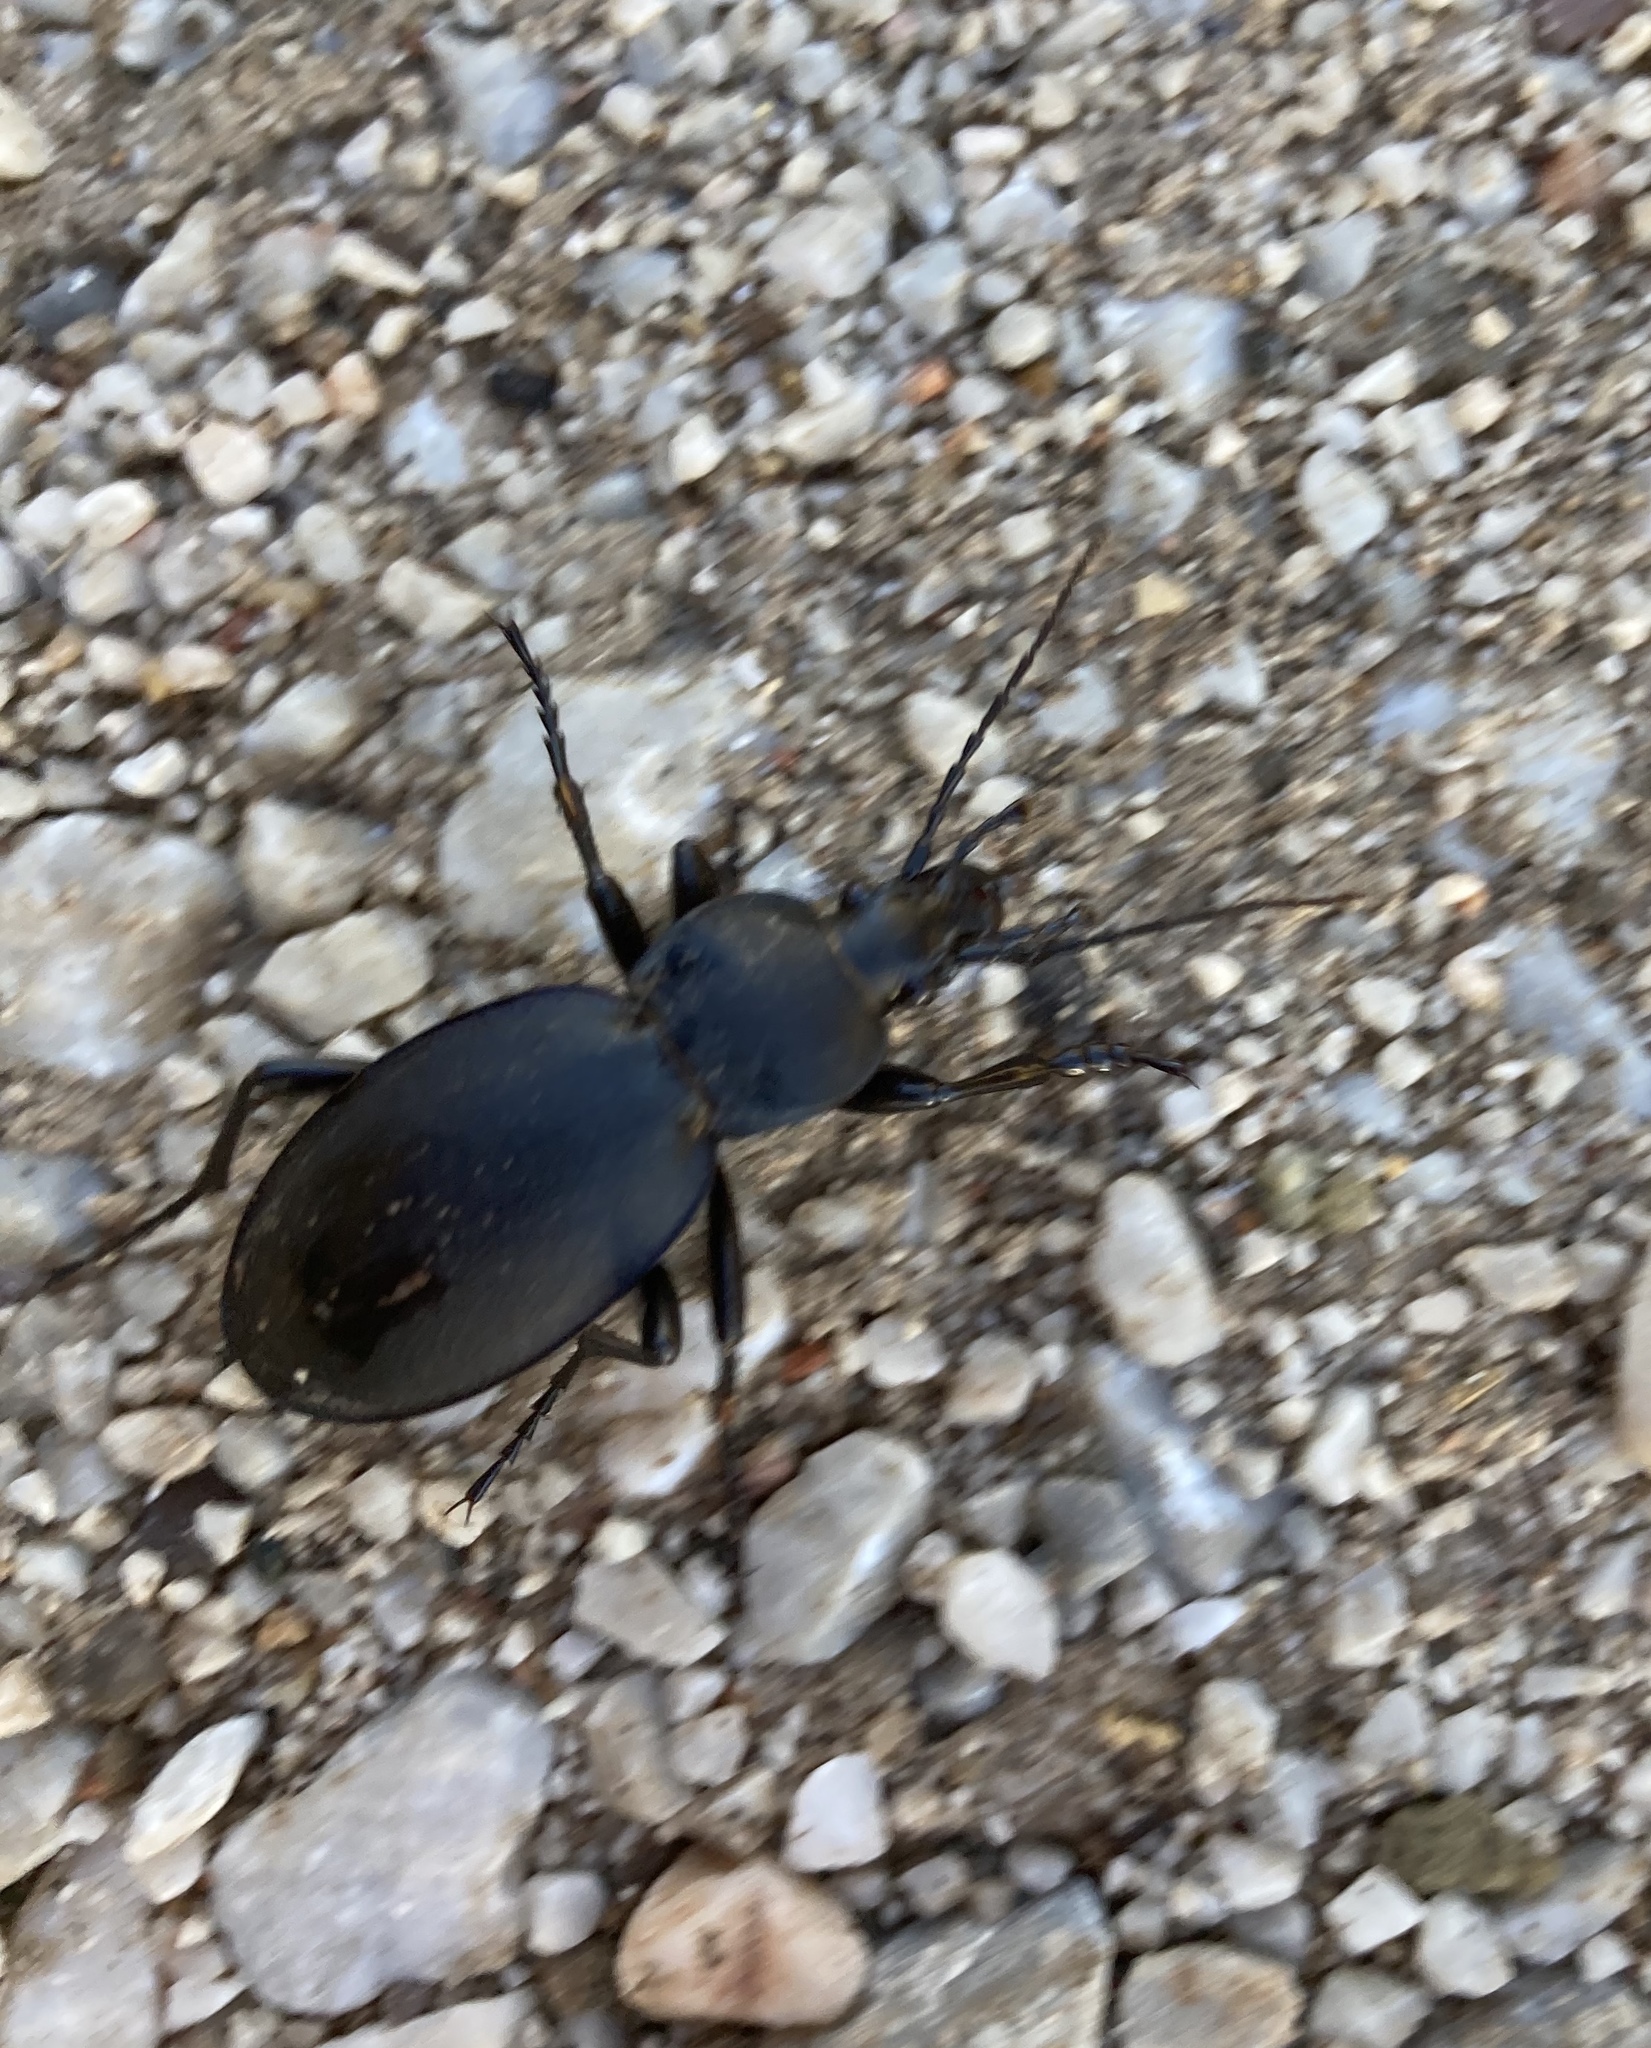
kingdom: Animalia
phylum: Arthropoda
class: Insecta
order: Coleoptera
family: Carabidae
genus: Carabus
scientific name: Carabus coriaceus
